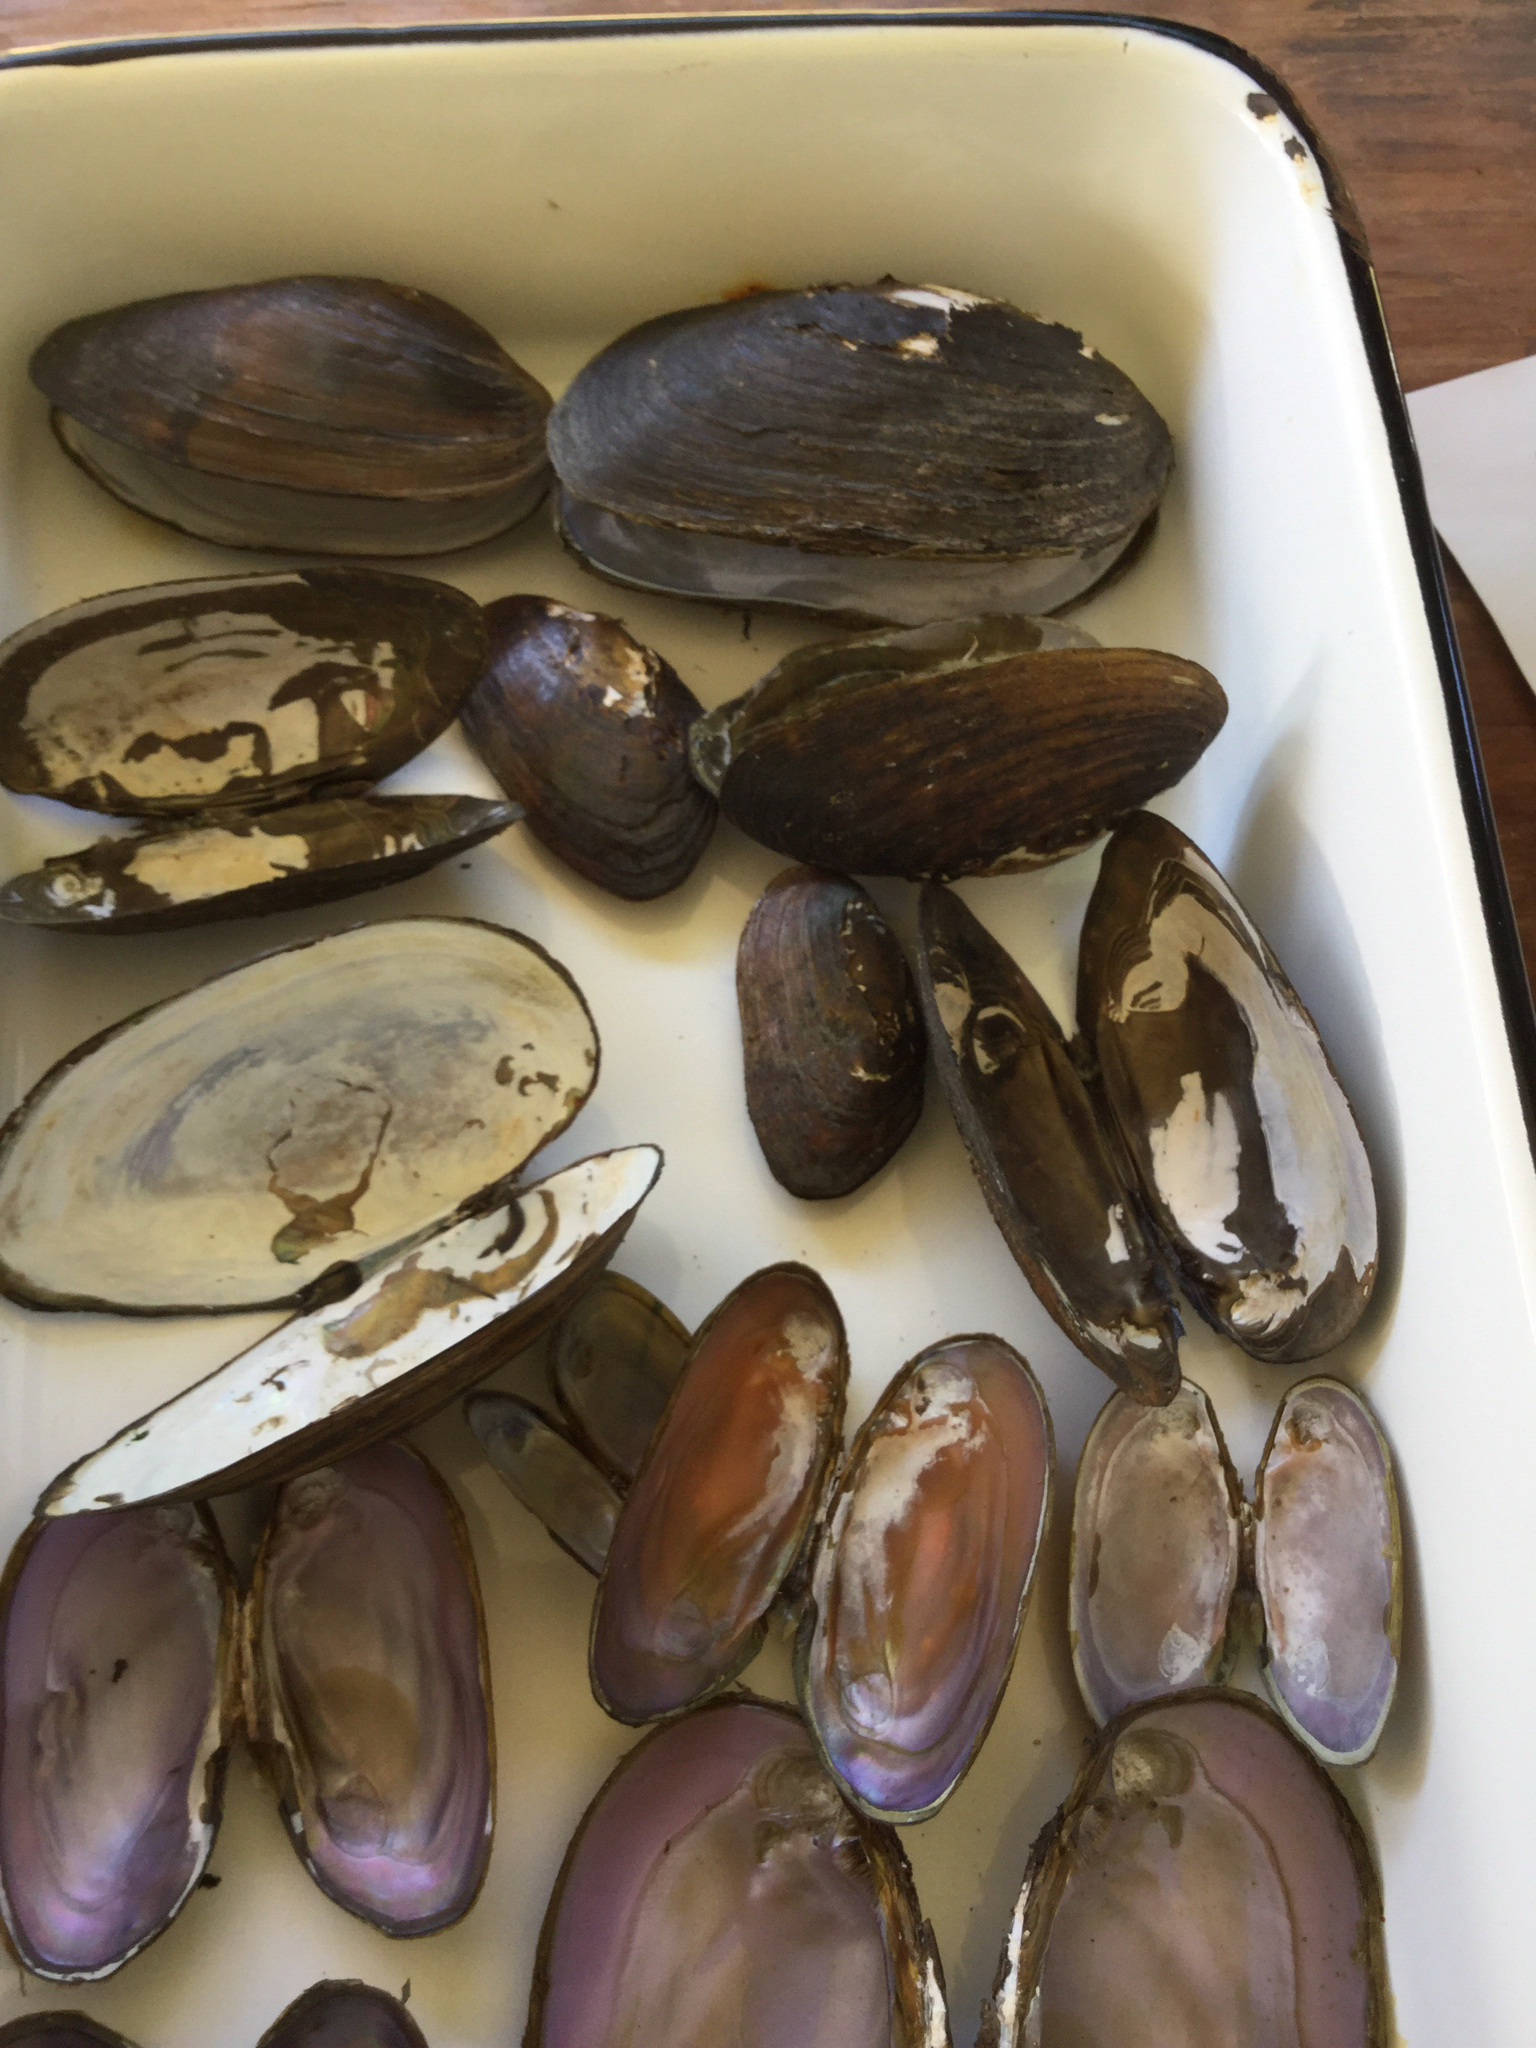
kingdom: Animalia
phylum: Mollusca
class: Bivalvia
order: Unionida
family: Unionidae
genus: Elliptio
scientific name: Elliptio complanata
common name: Eastern elliptio
